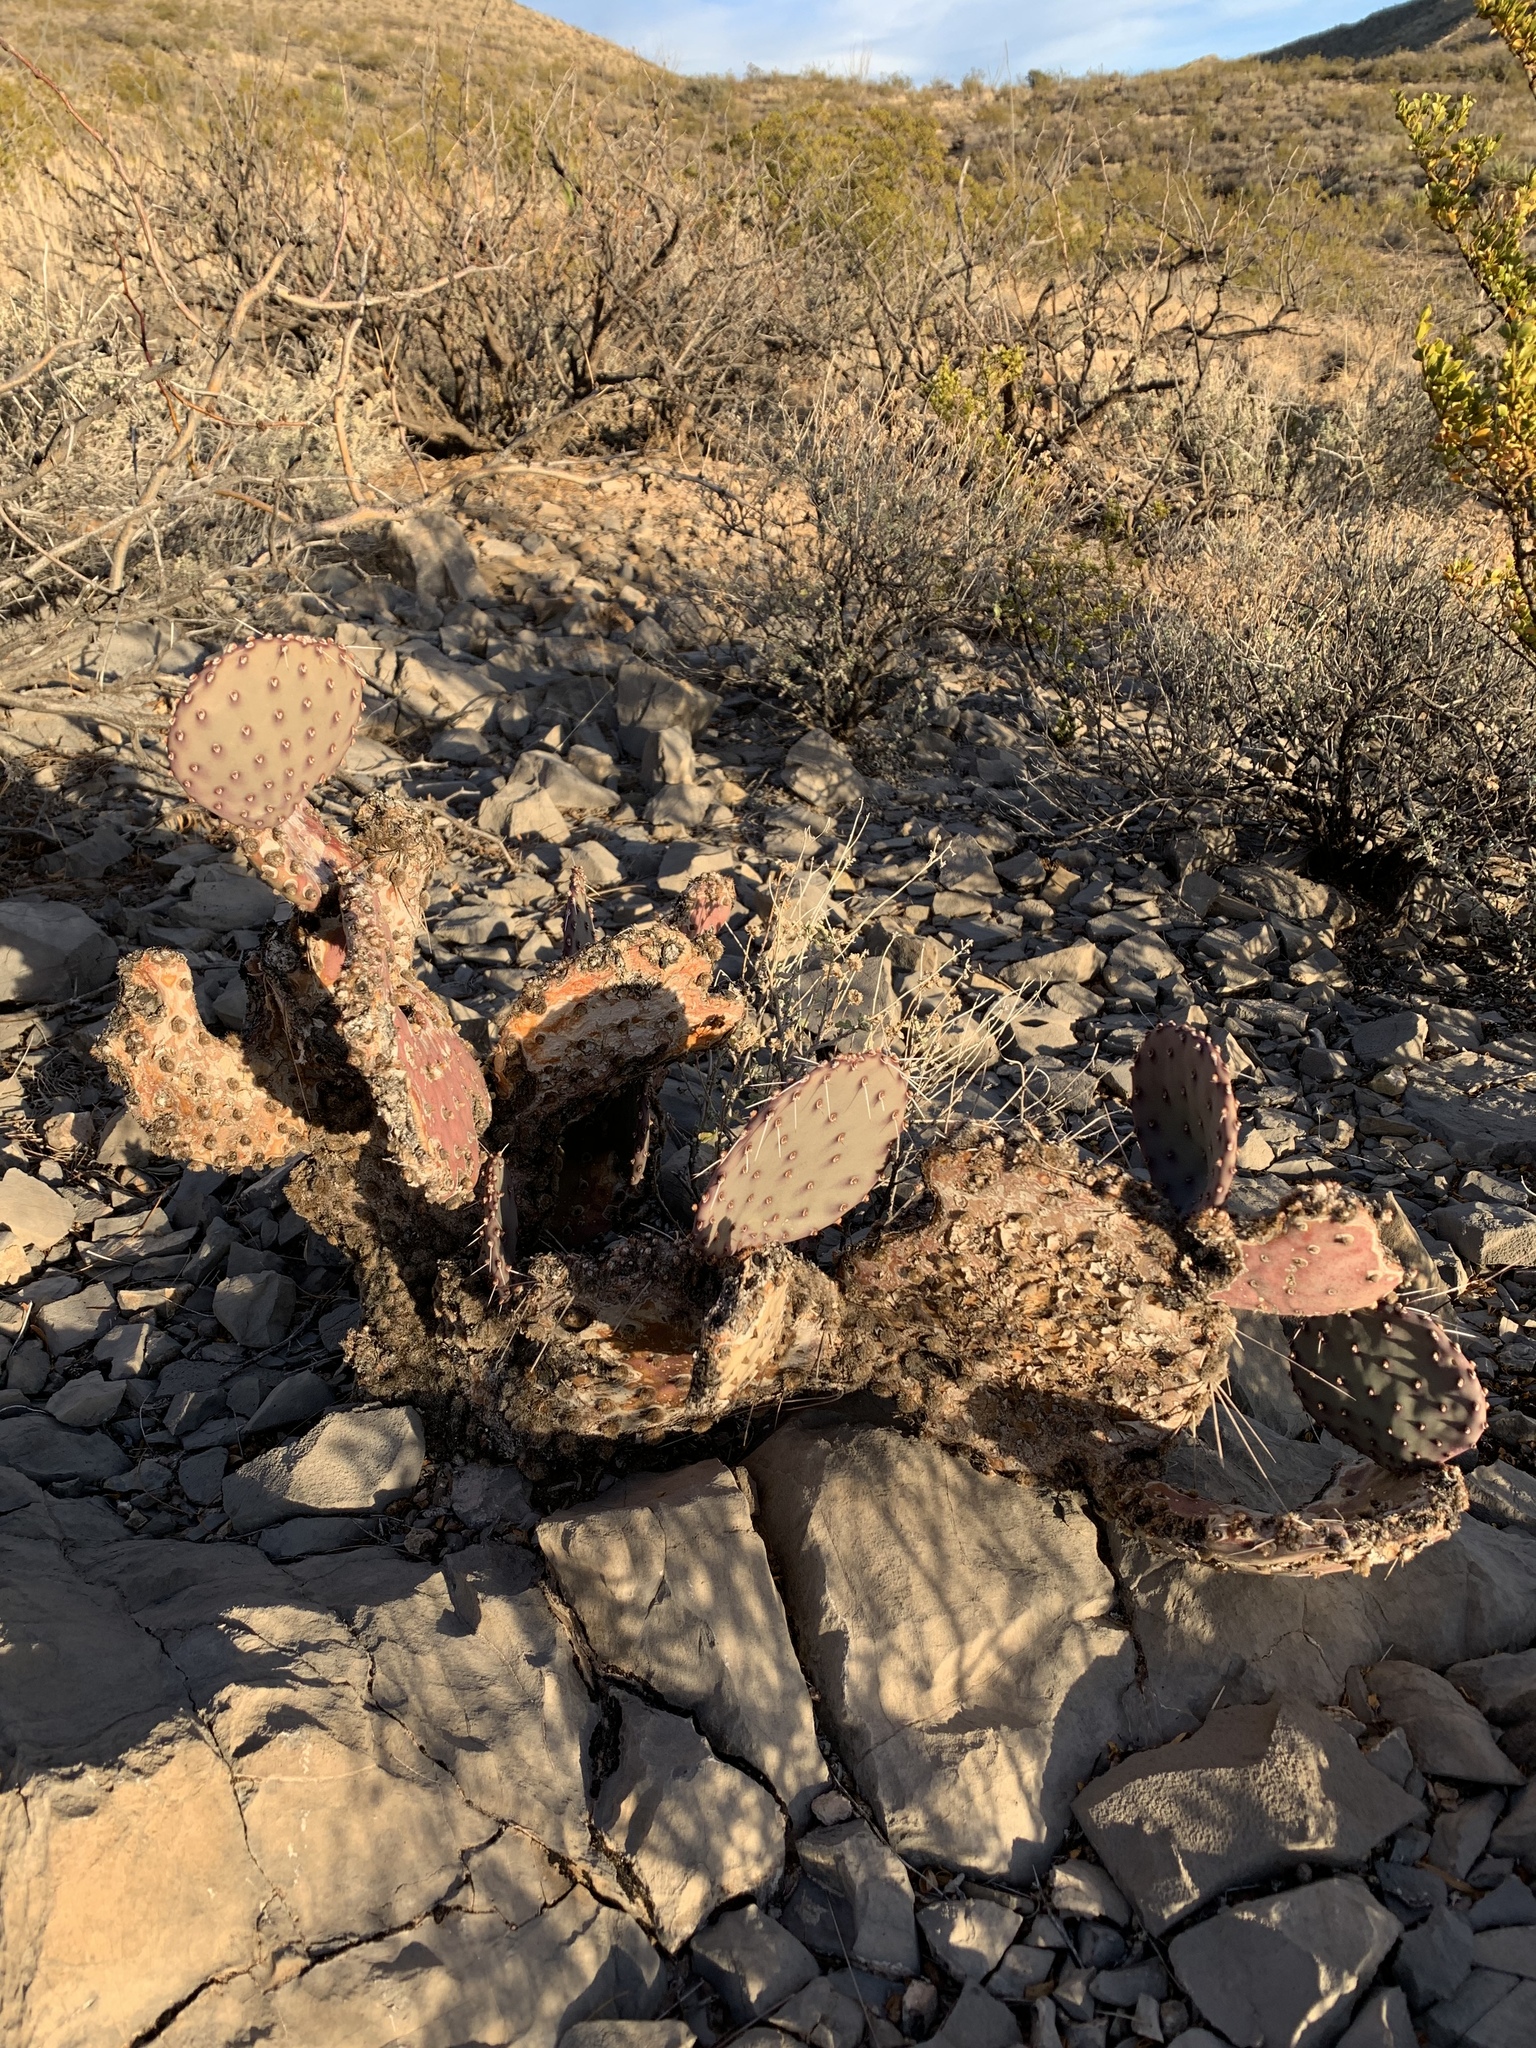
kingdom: Plantae
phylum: Tracheophyta
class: Magnoliopsida
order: Caryophyllales
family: Cactaceae
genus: Opuntia
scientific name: Opuntia macrocentra
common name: Purple prickly-pear
